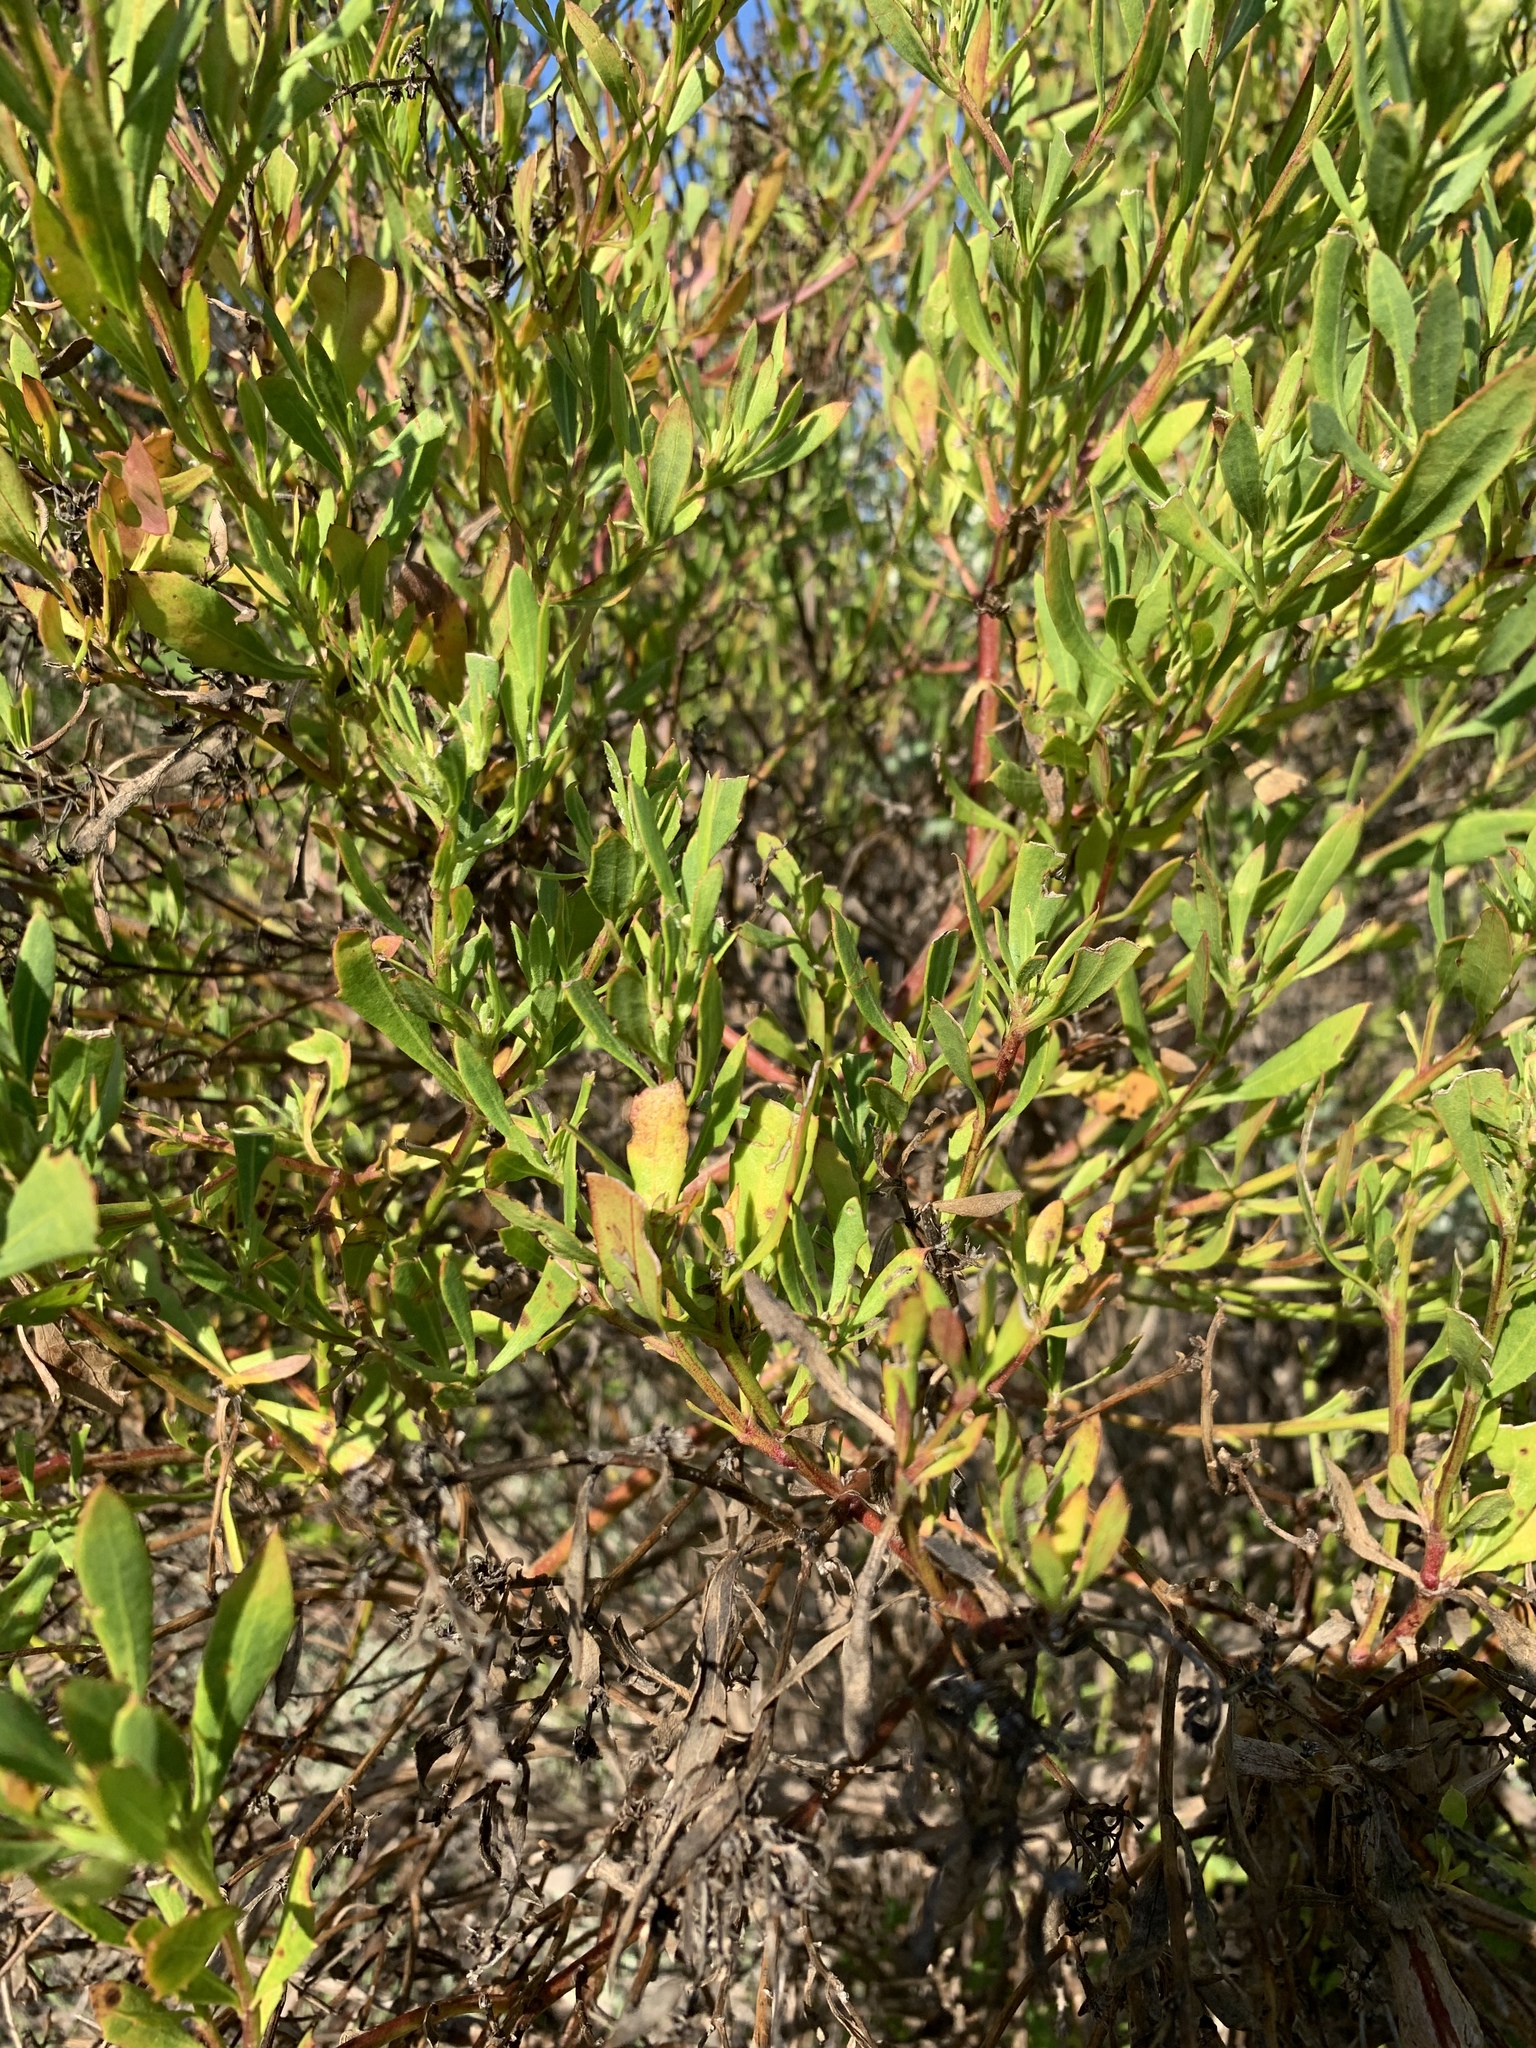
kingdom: Plantae
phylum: Tracheophyta
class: Magnoliopsida
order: Asterales
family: Asteraceae
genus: Osteospermum
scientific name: Osteospermum moniliferum
